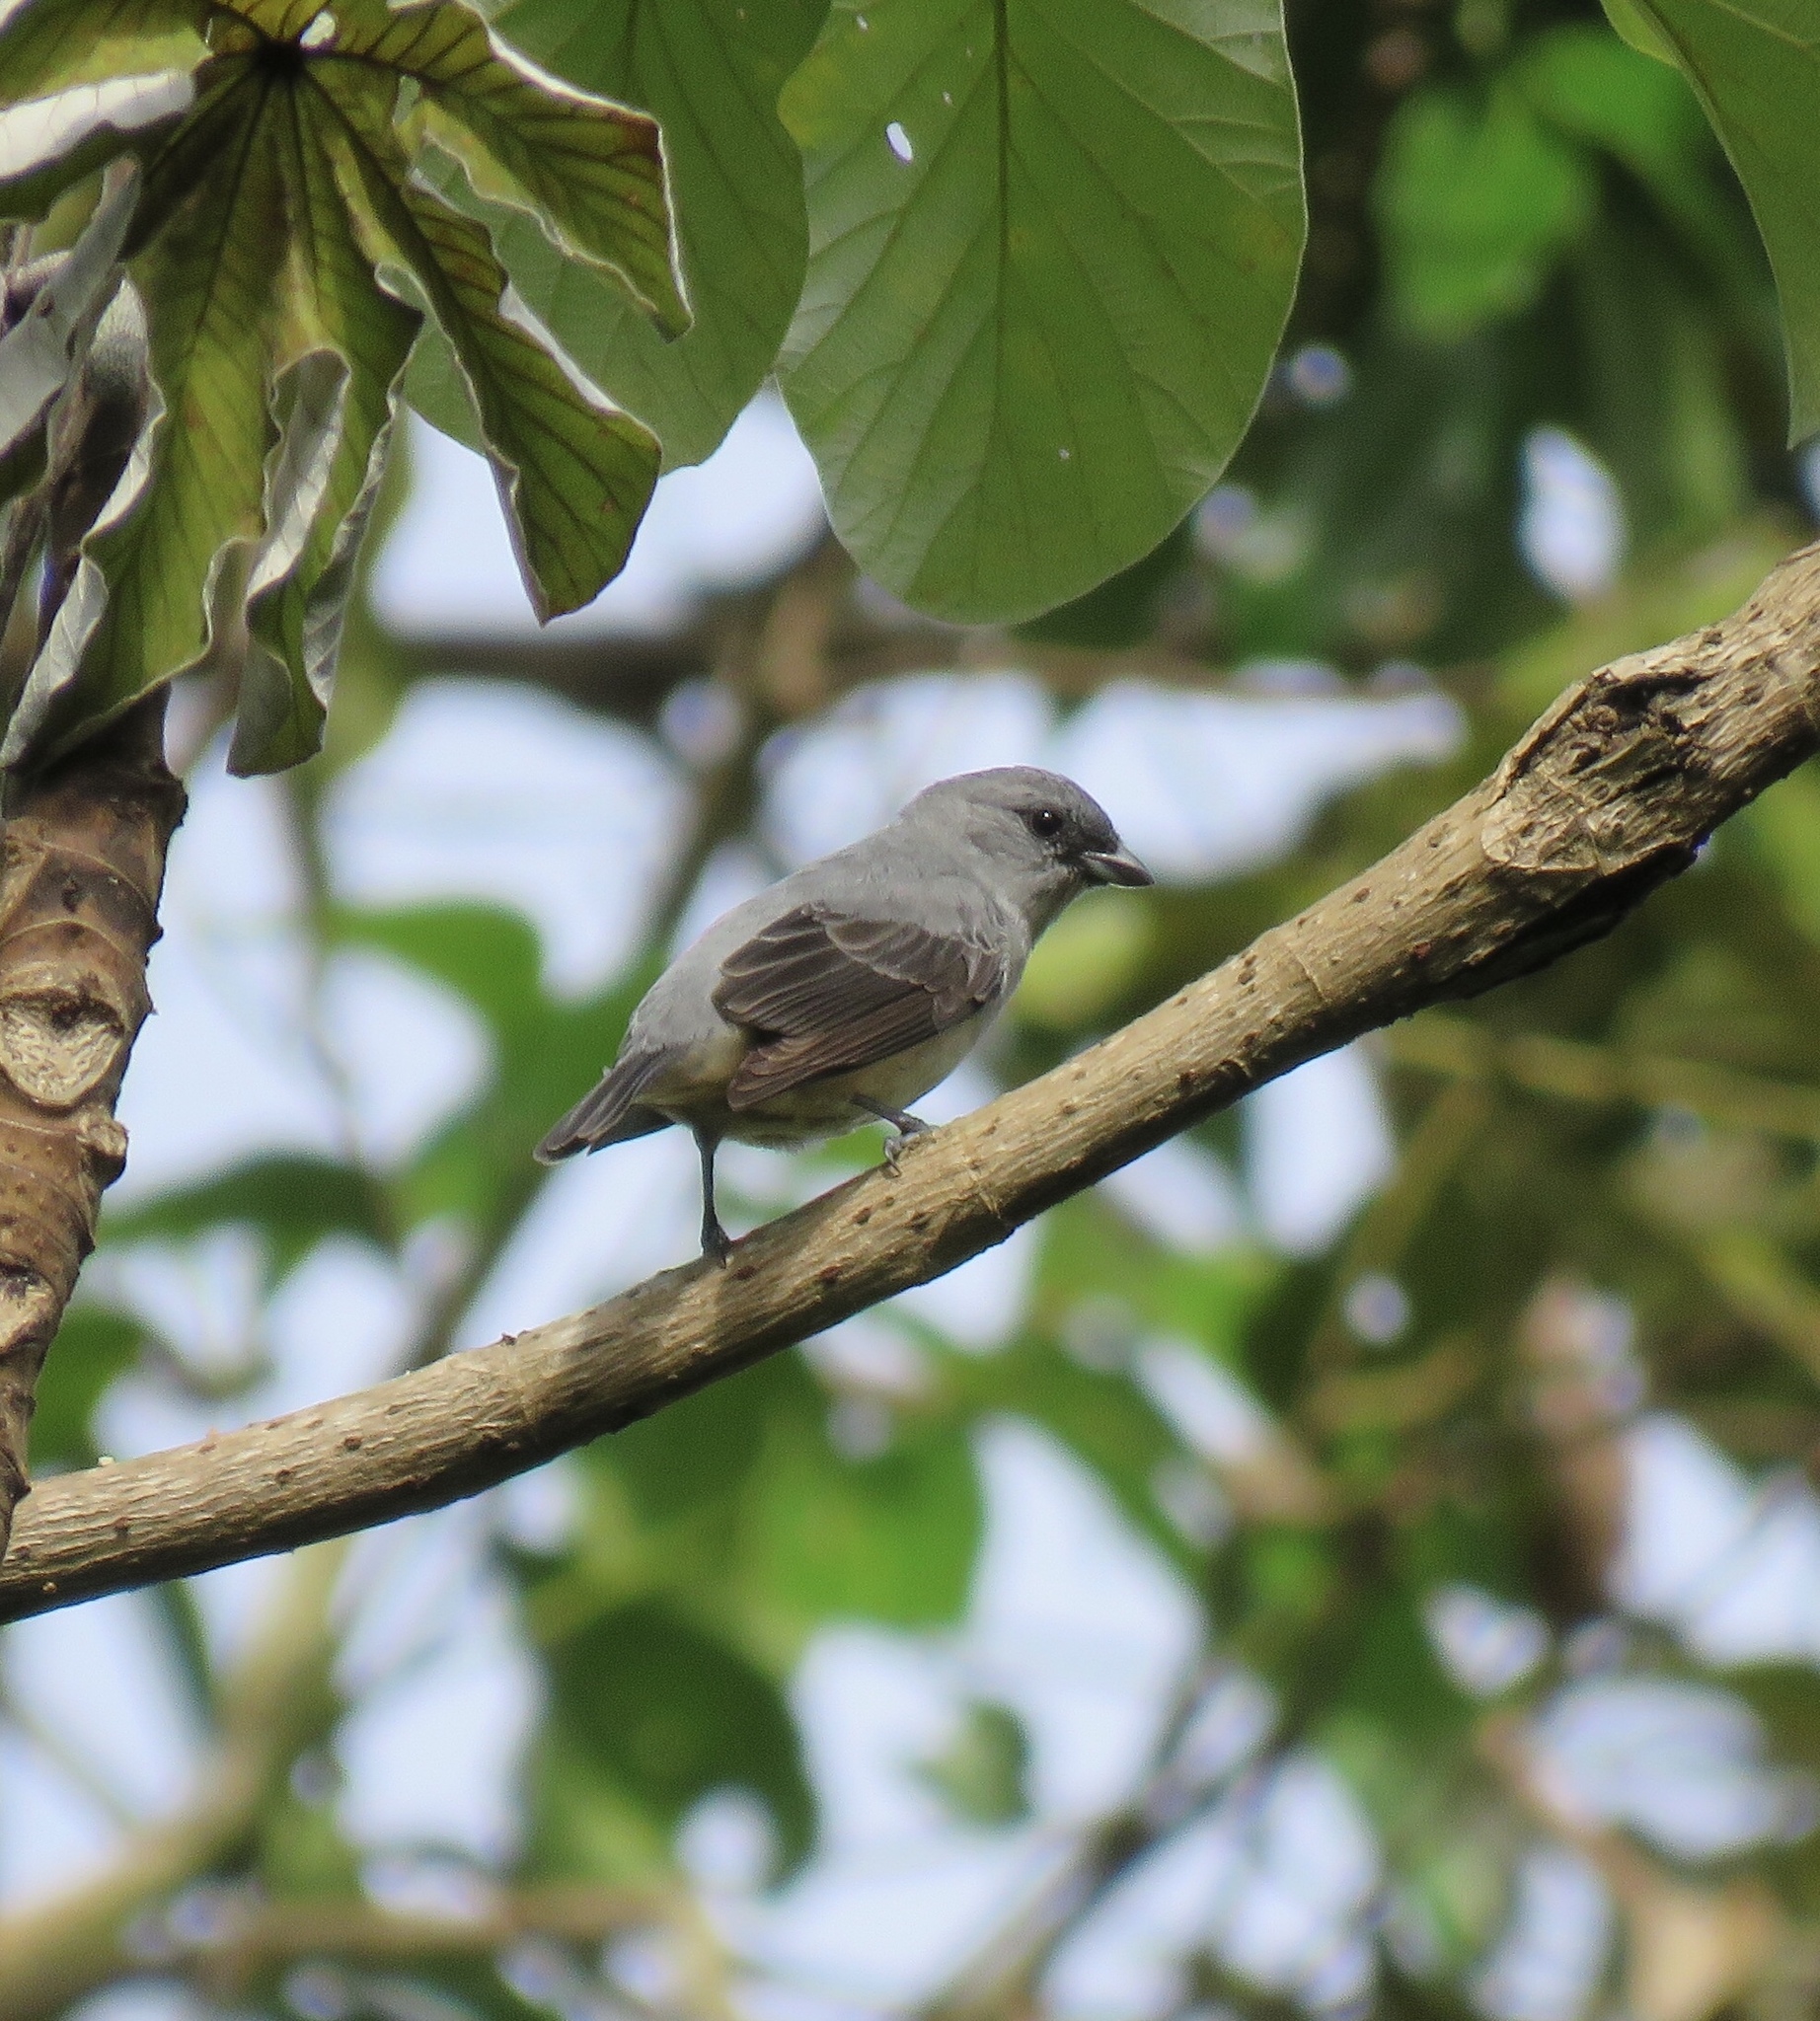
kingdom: Animalia
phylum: Chordata
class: Aves
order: Passeriformes
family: Thraupidae
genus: Tangara
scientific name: Tangara inornata
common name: Plain-colored tanager
